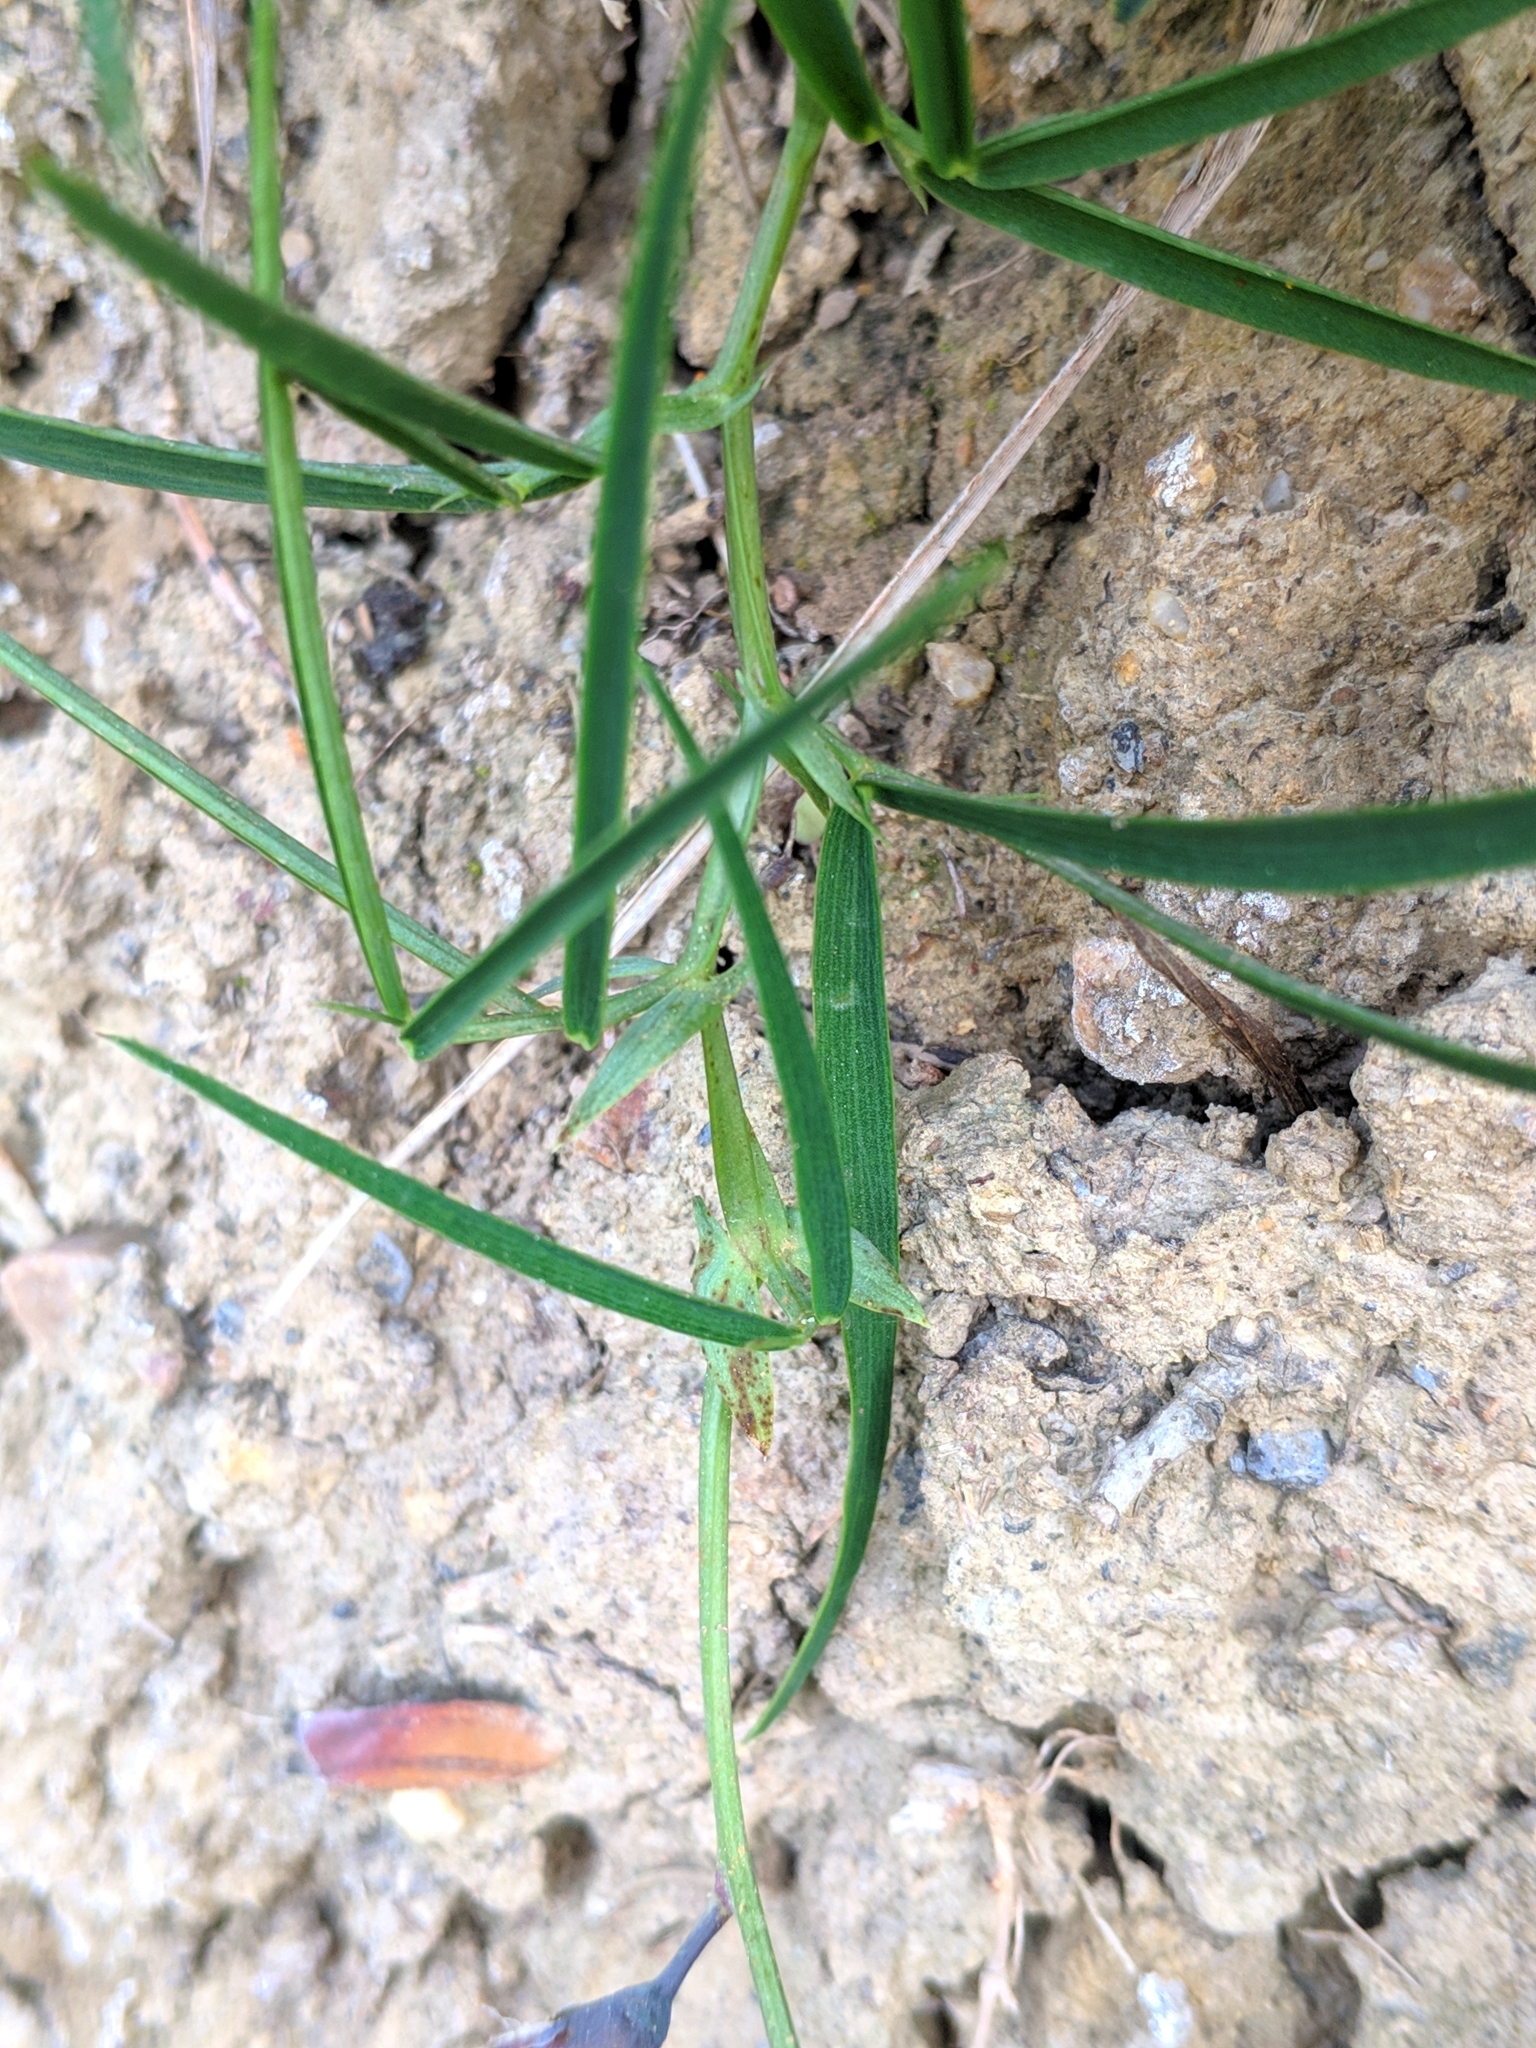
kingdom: Plantae
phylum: Tracheophyta
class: Magnoliopsida
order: Fabales
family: Fabaceae
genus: Lathyrus
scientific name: Lathyrus linifolius
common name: Bitter-vetch
